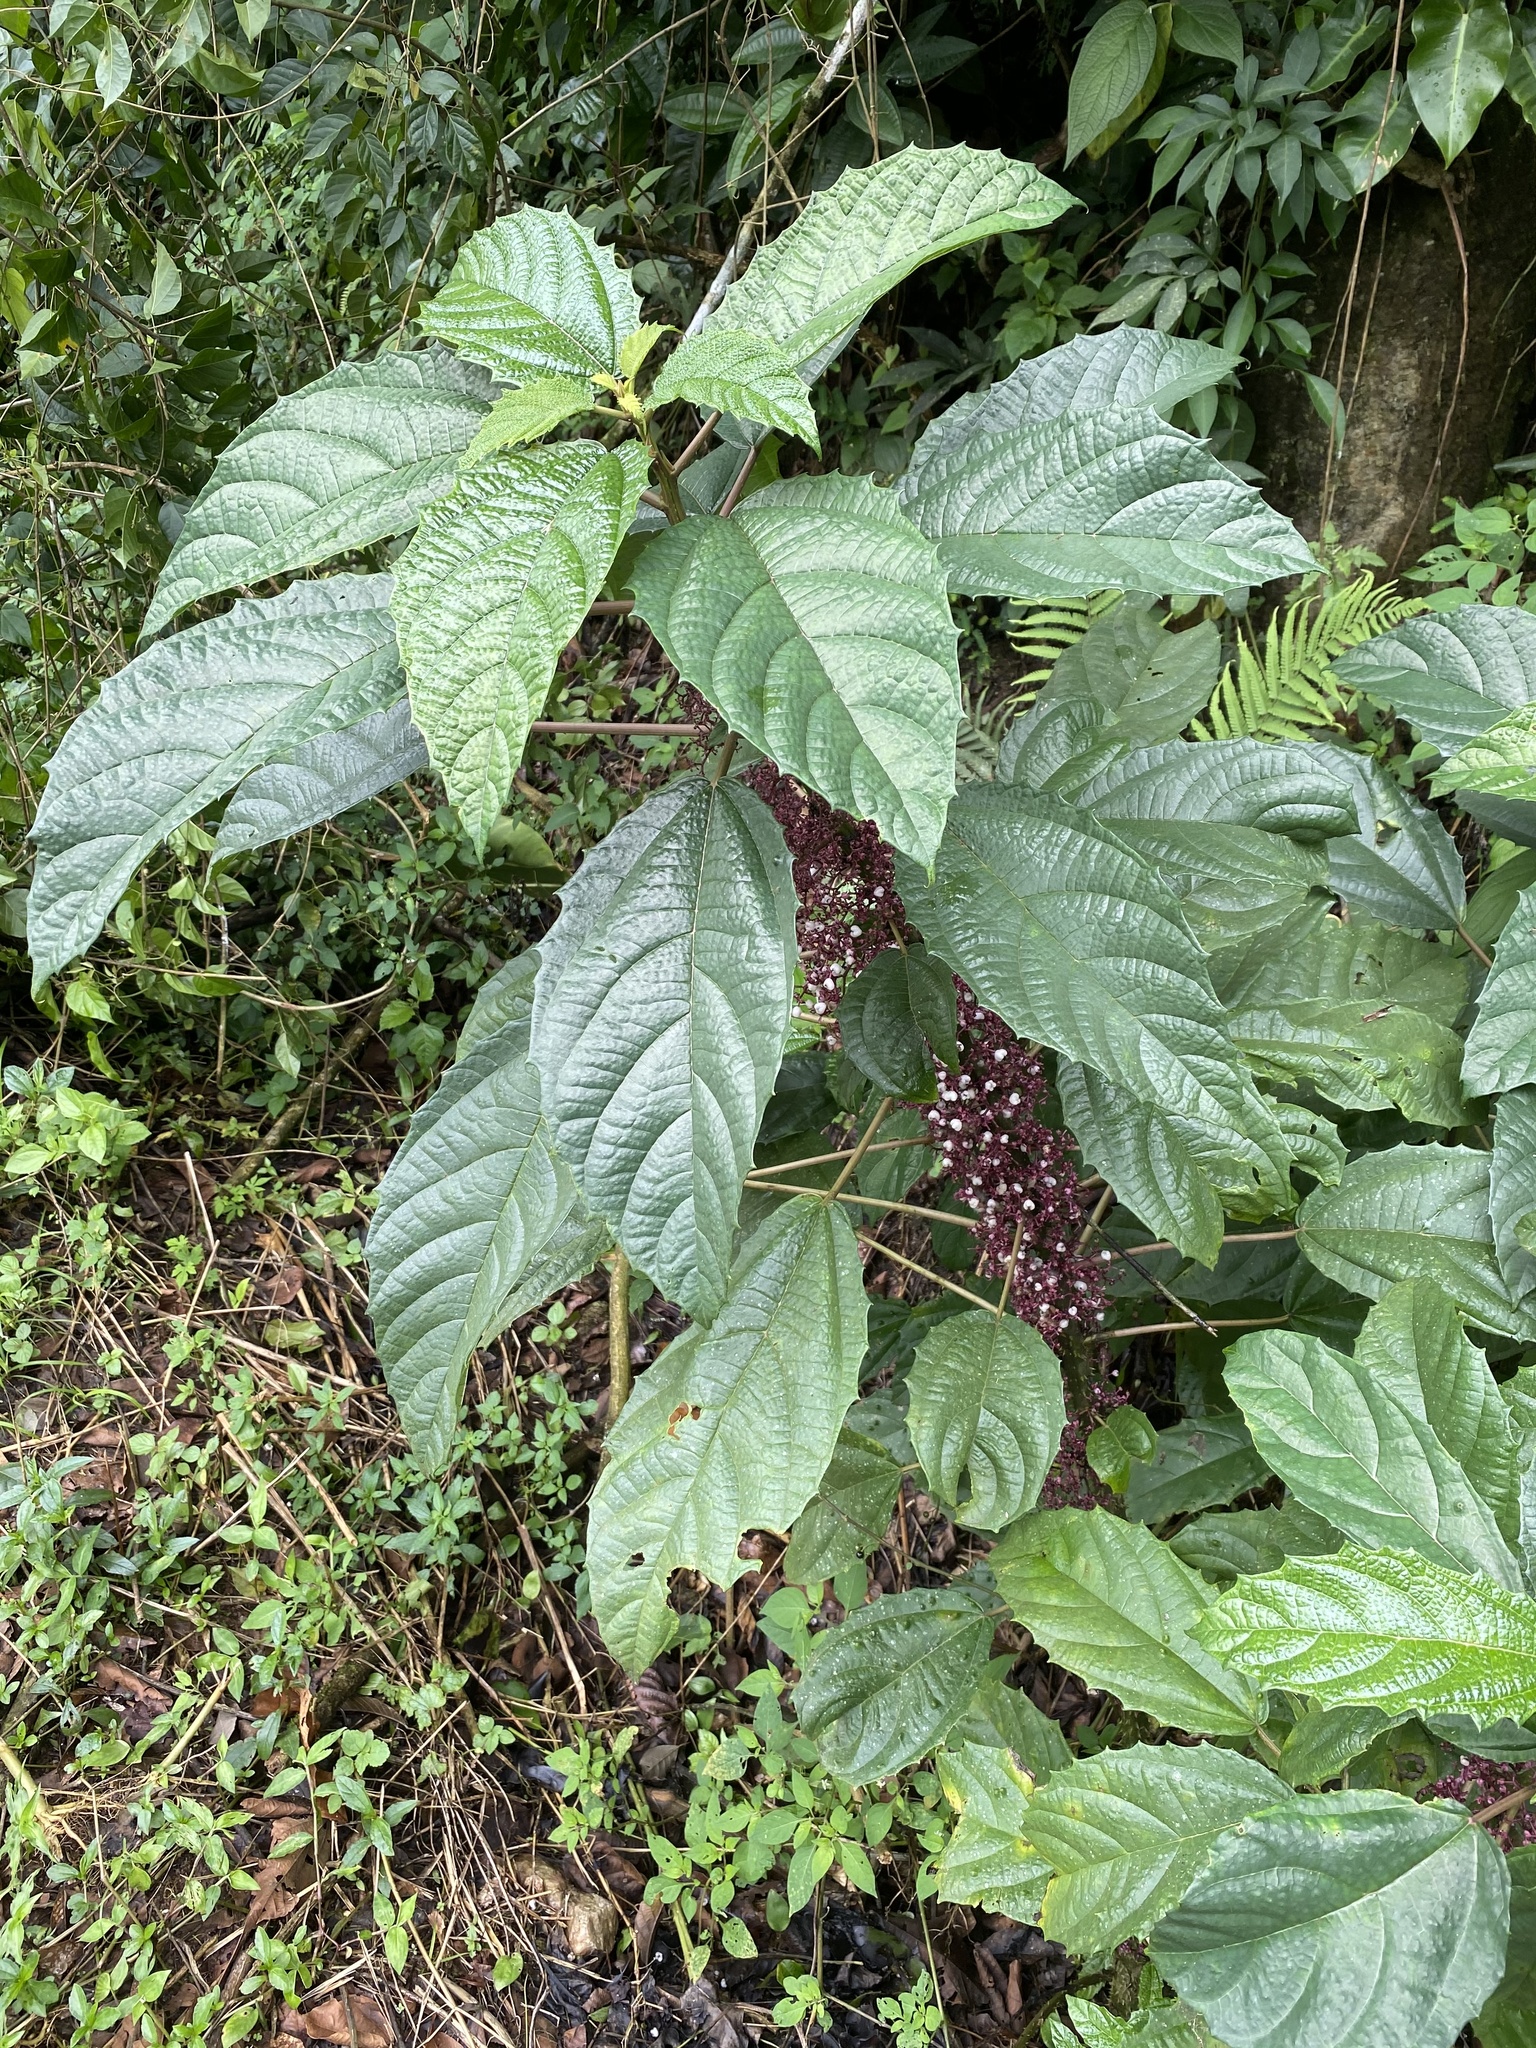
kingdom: Plantae
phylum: Tracheophyta
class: Magnoliopsida
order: Rosales
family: Urticaceae
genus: Urera
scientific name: Urera baccifera
